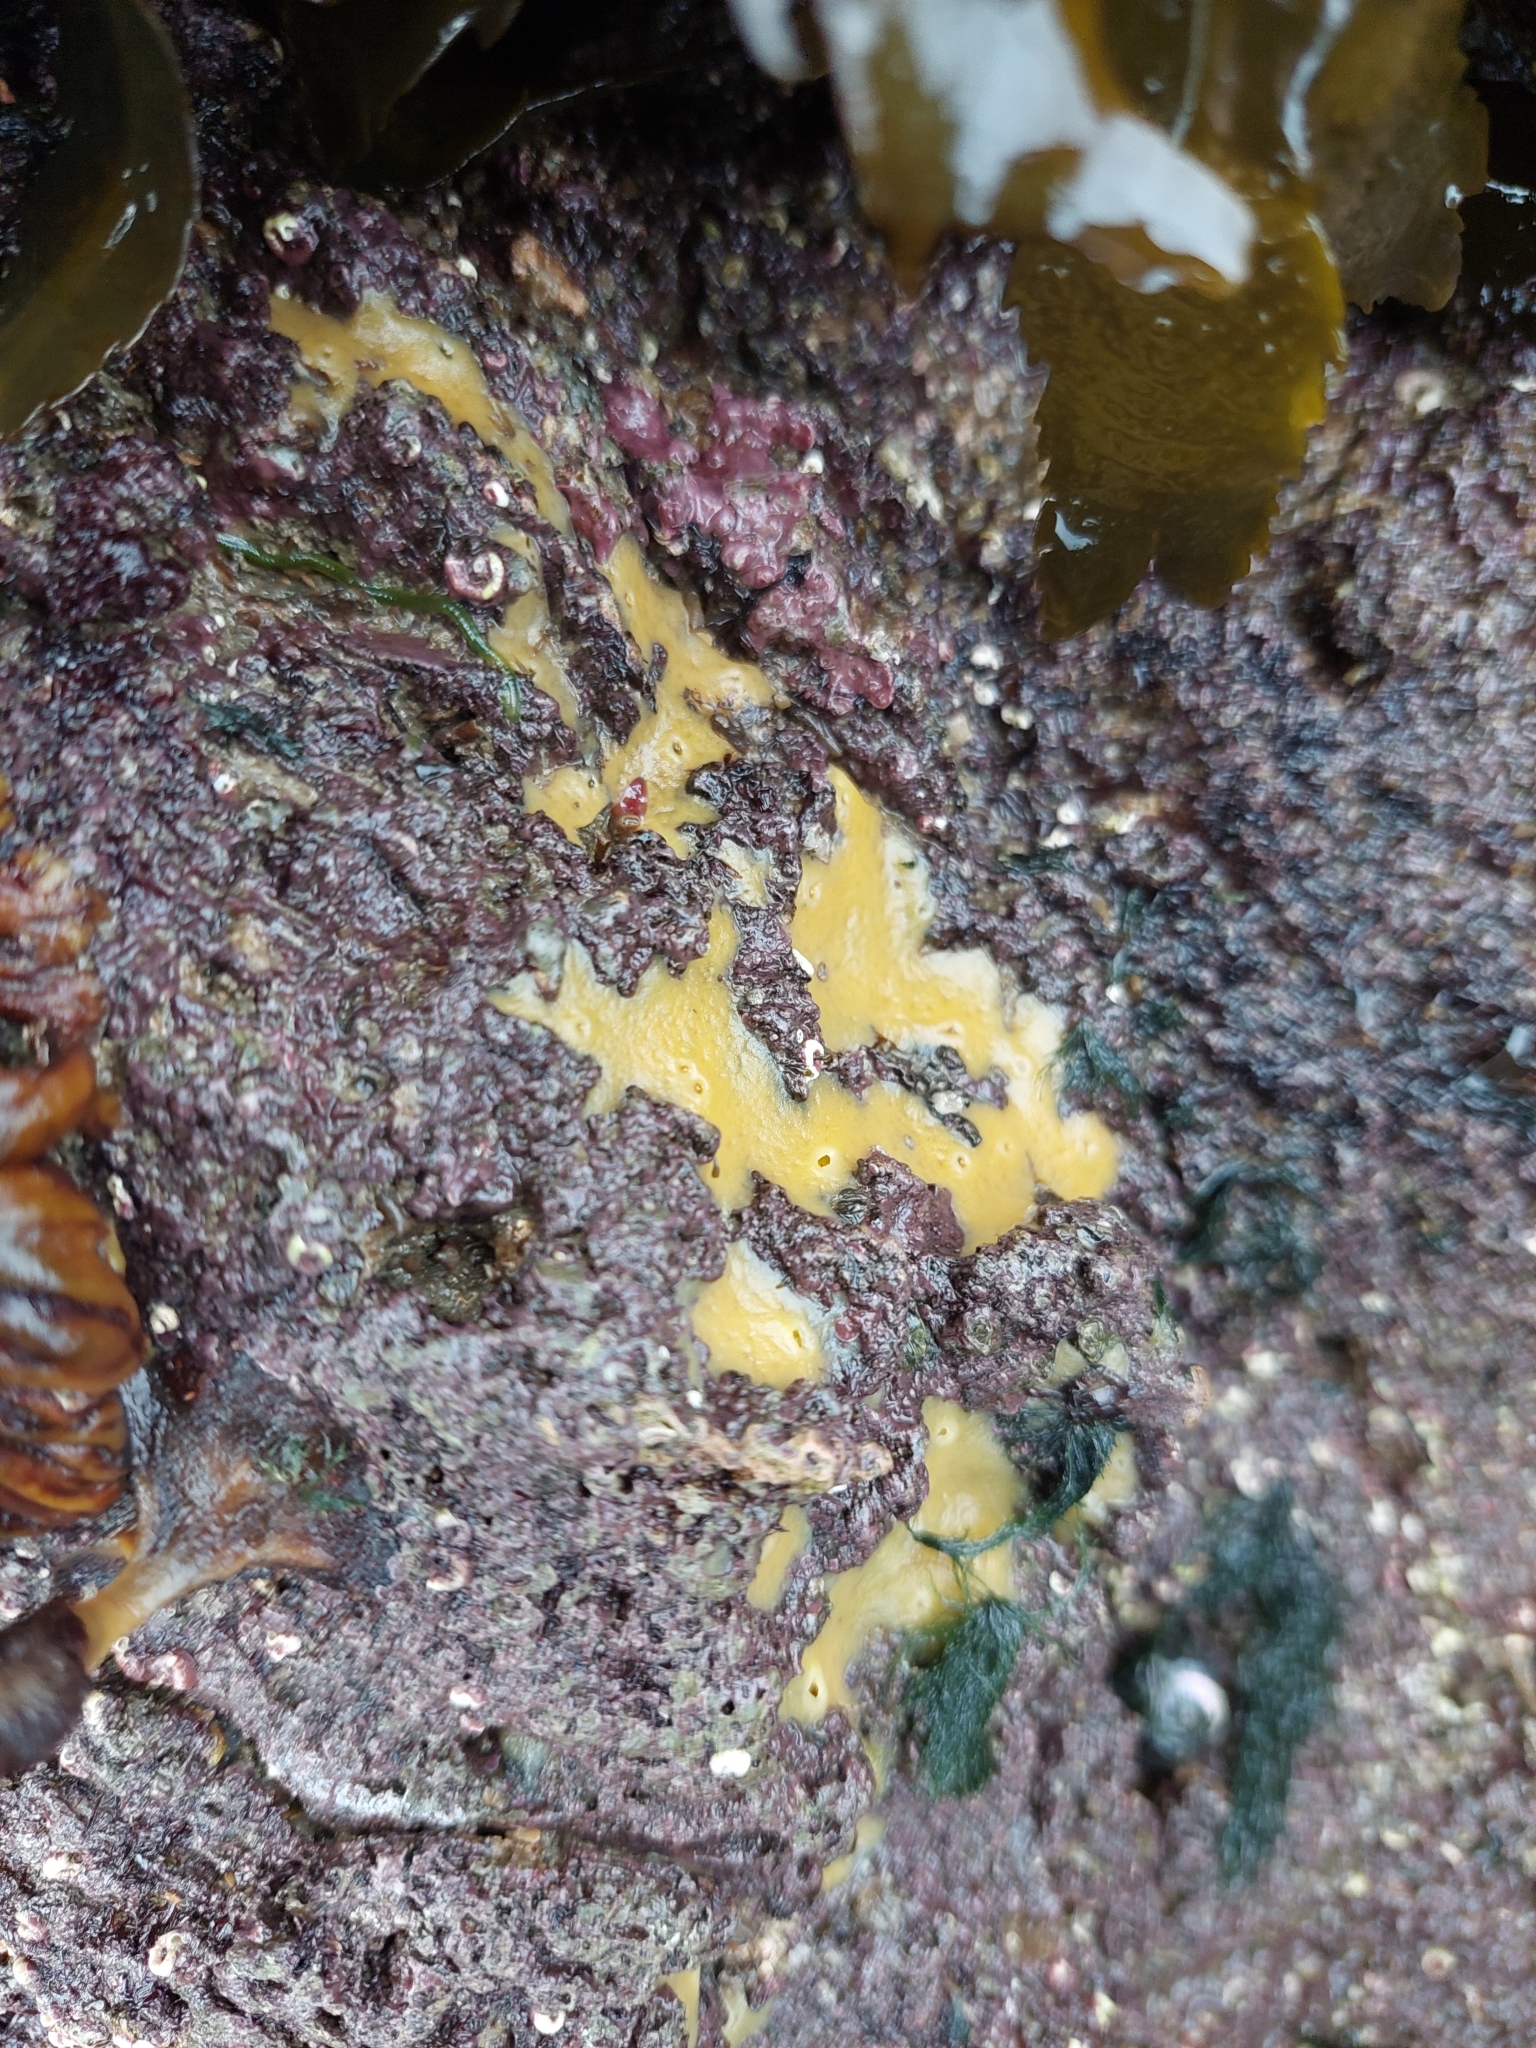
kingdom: Animalia
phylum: Porifera
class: Demospongiae
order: Suberitida
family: Halichondriidae
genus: Halichondria
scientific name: Halichondria panicea
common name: Breadcrumb sponge
